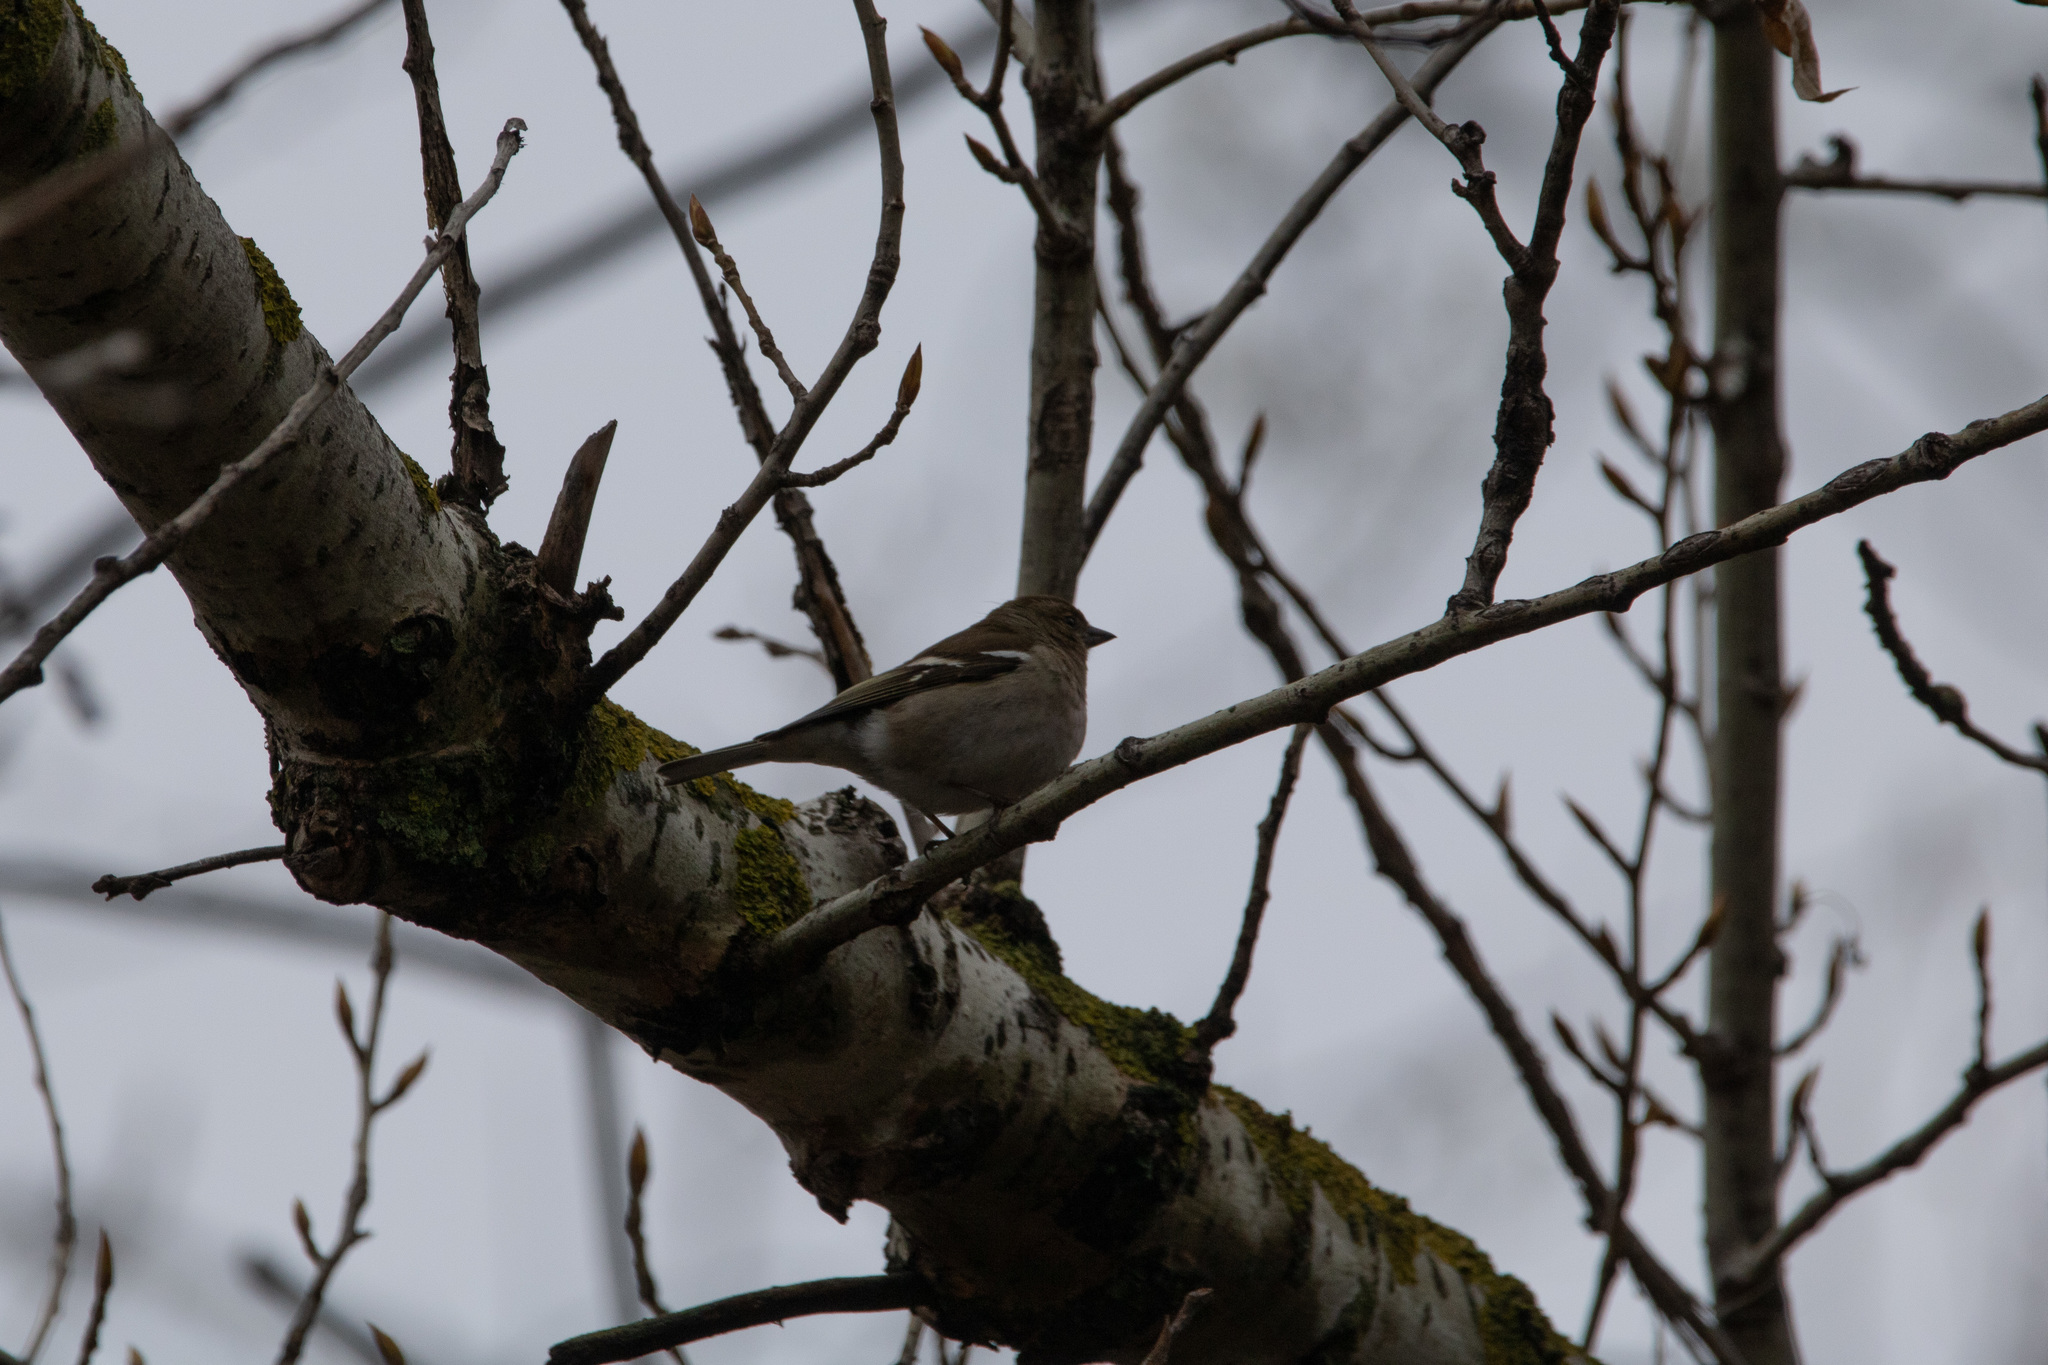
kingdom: Animalia
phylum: Chordata
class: Aves
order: Passeriformes
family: Fringillidae
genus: Fringilla
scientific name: Fringilla coelebs
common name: Common chaffinch
